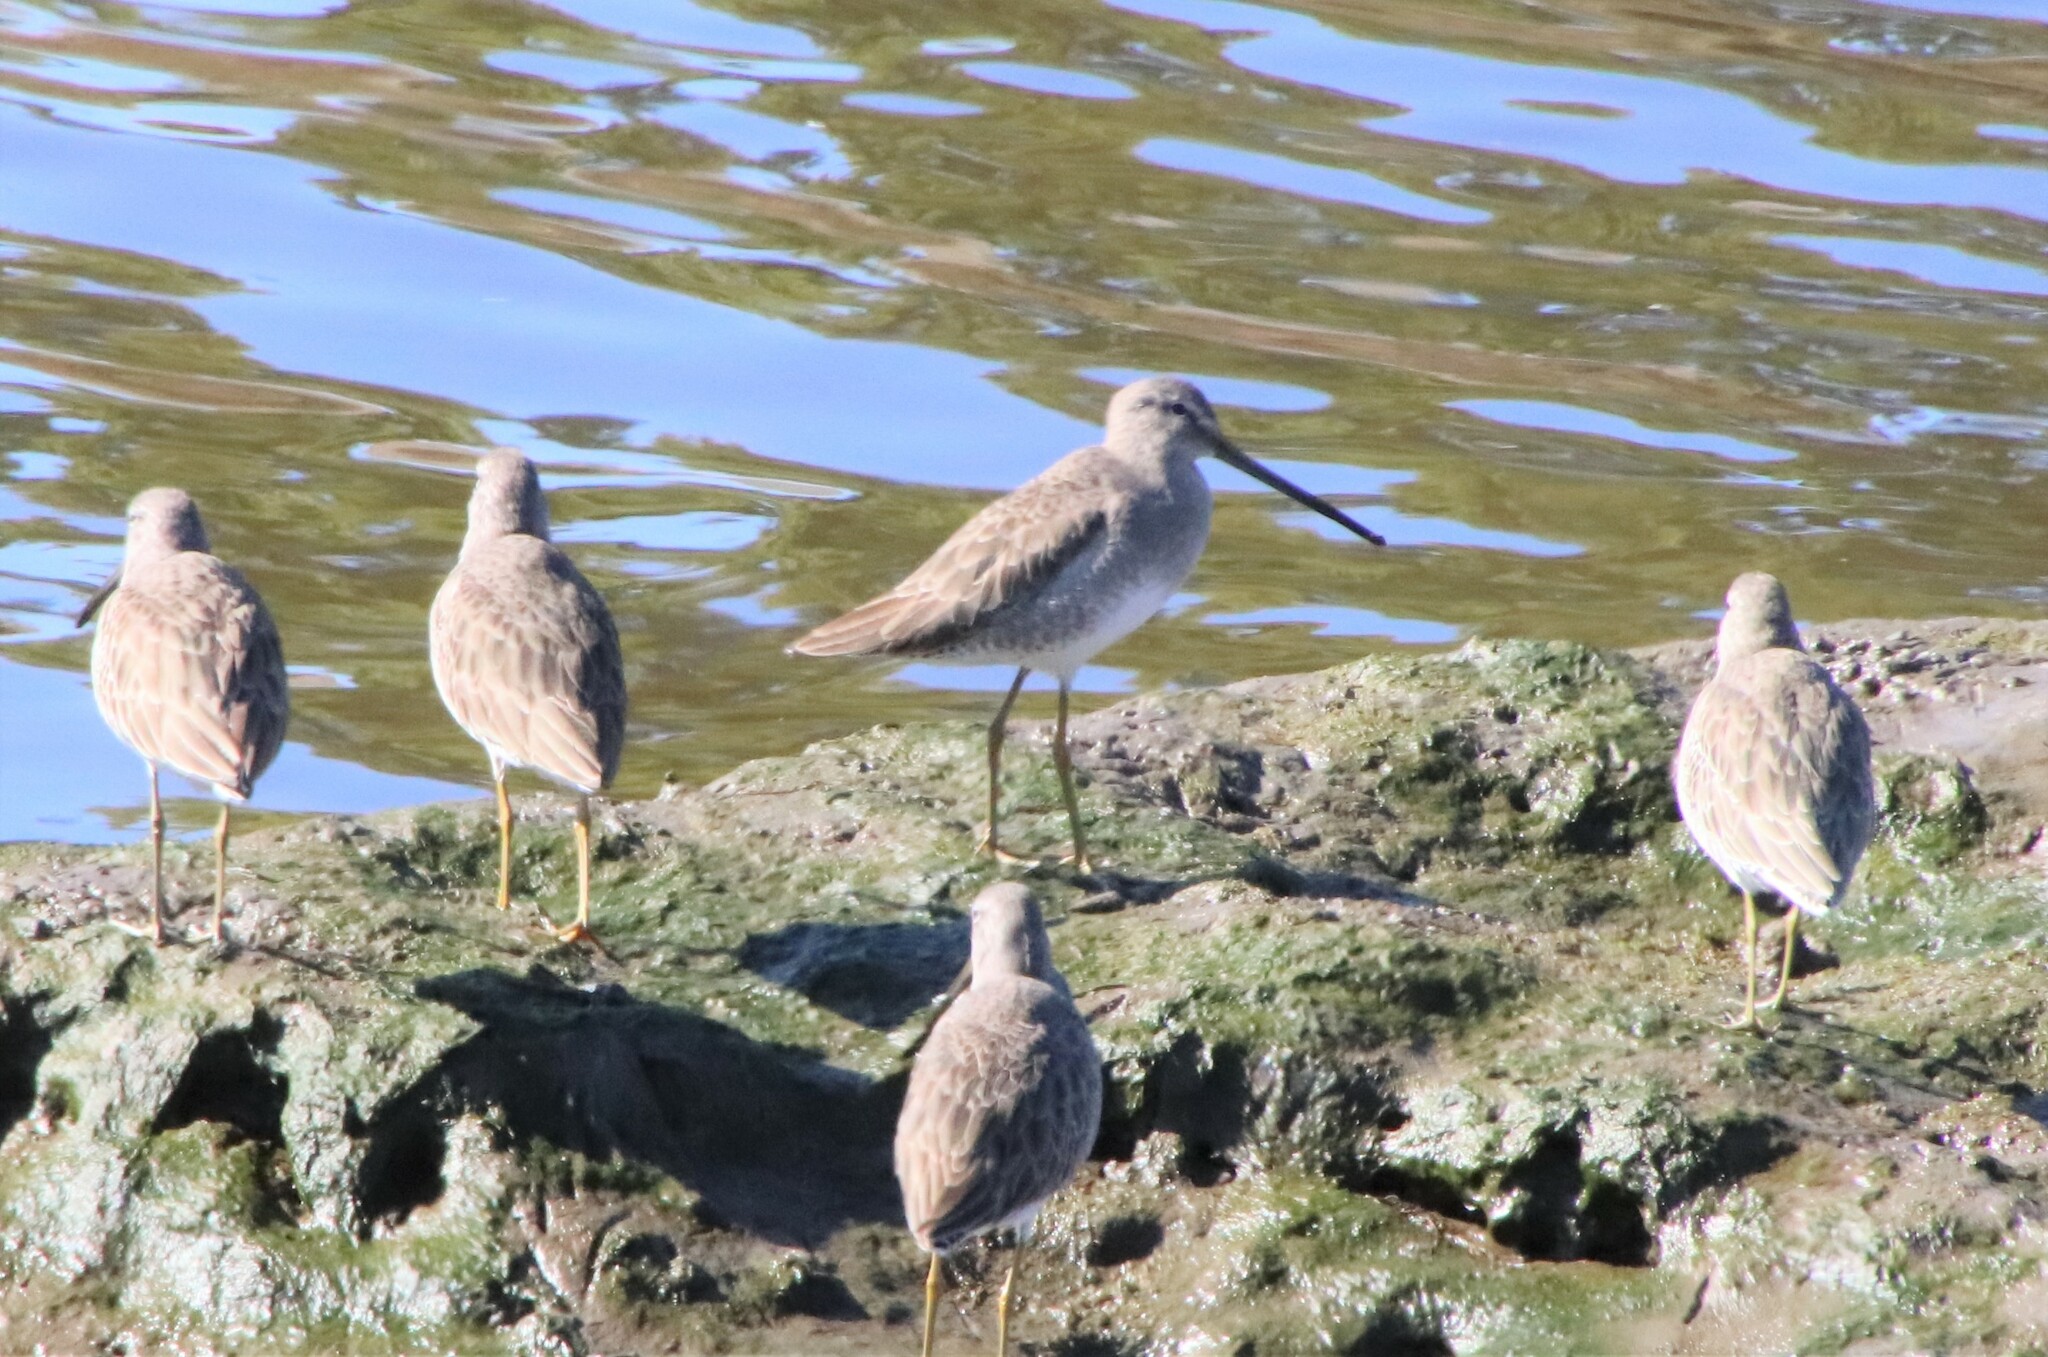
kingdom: Animalia
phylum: Chordata
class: Aves
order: Charadriiformes
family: Scolopacidae
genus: Limnodromus
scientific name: Limnodromus scolopaceus
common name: Long-billed dowitcher
